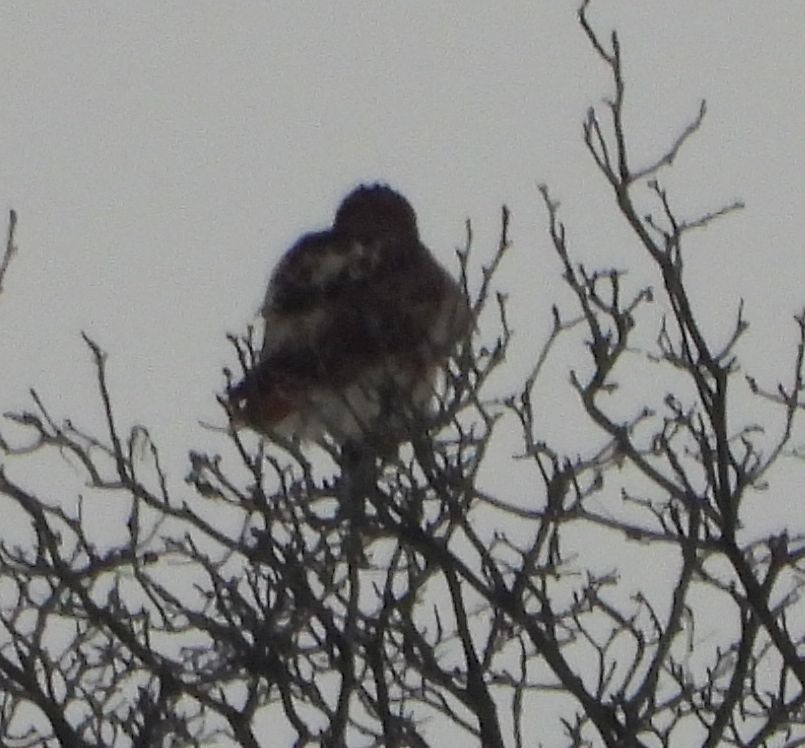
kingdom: Animalia
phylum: Chordata
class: Aves
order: Accipitriformes
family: Accipitridae
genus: Buteo
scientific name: Buteo jamaicensis
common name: Red-tailed hawk
